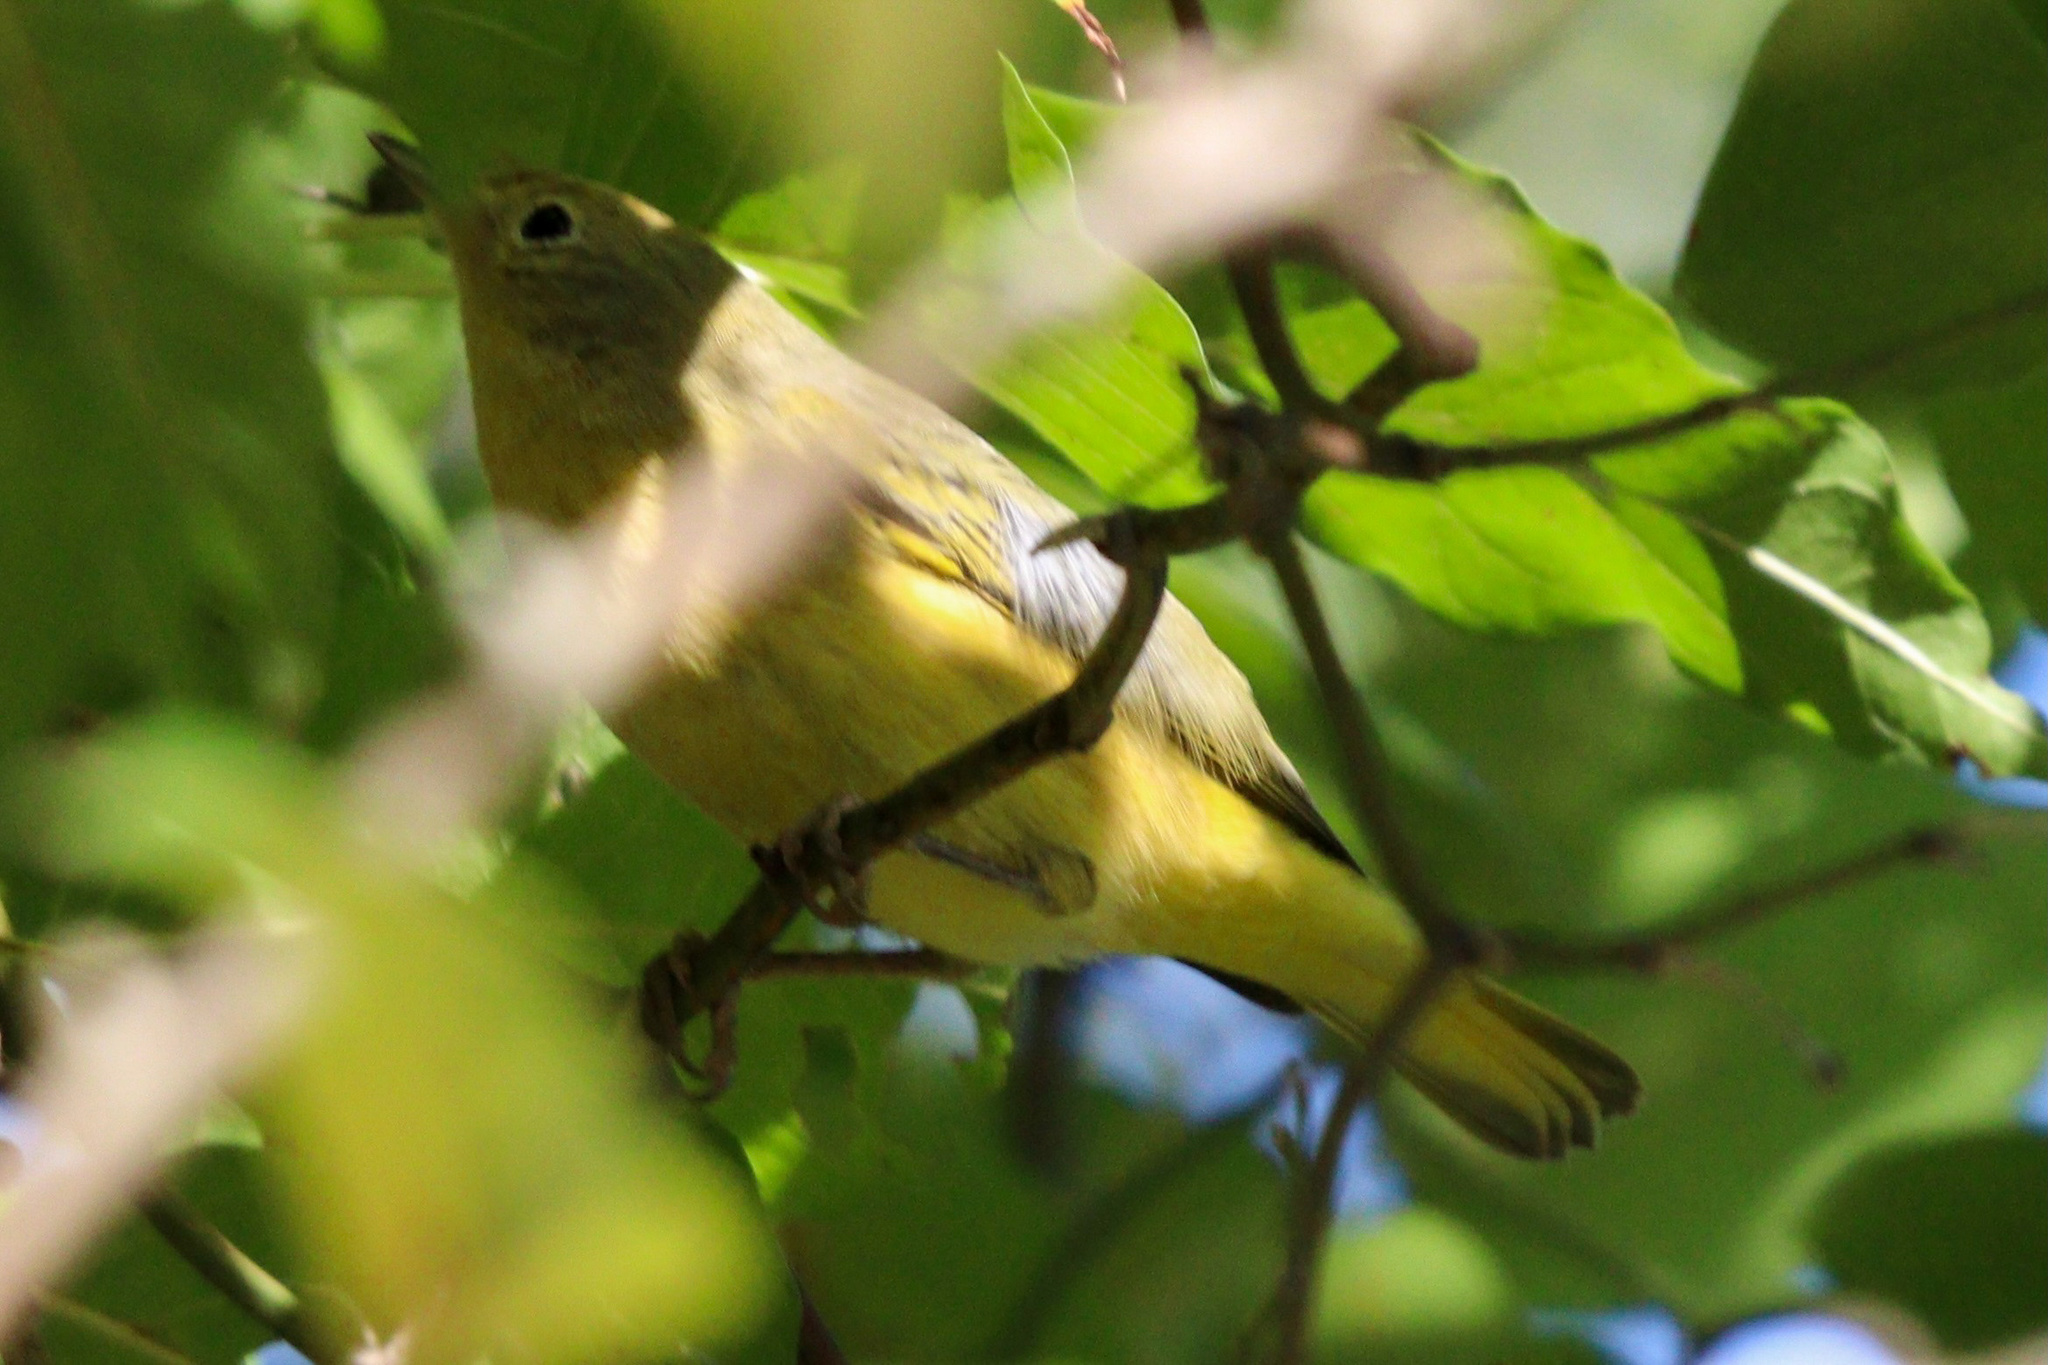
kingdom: Animalia
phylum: Chordata
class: Aves
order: Passeriformes
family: Parulidae
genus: Setophaga
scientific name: Setophaga petechia
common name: Yellow warbler
